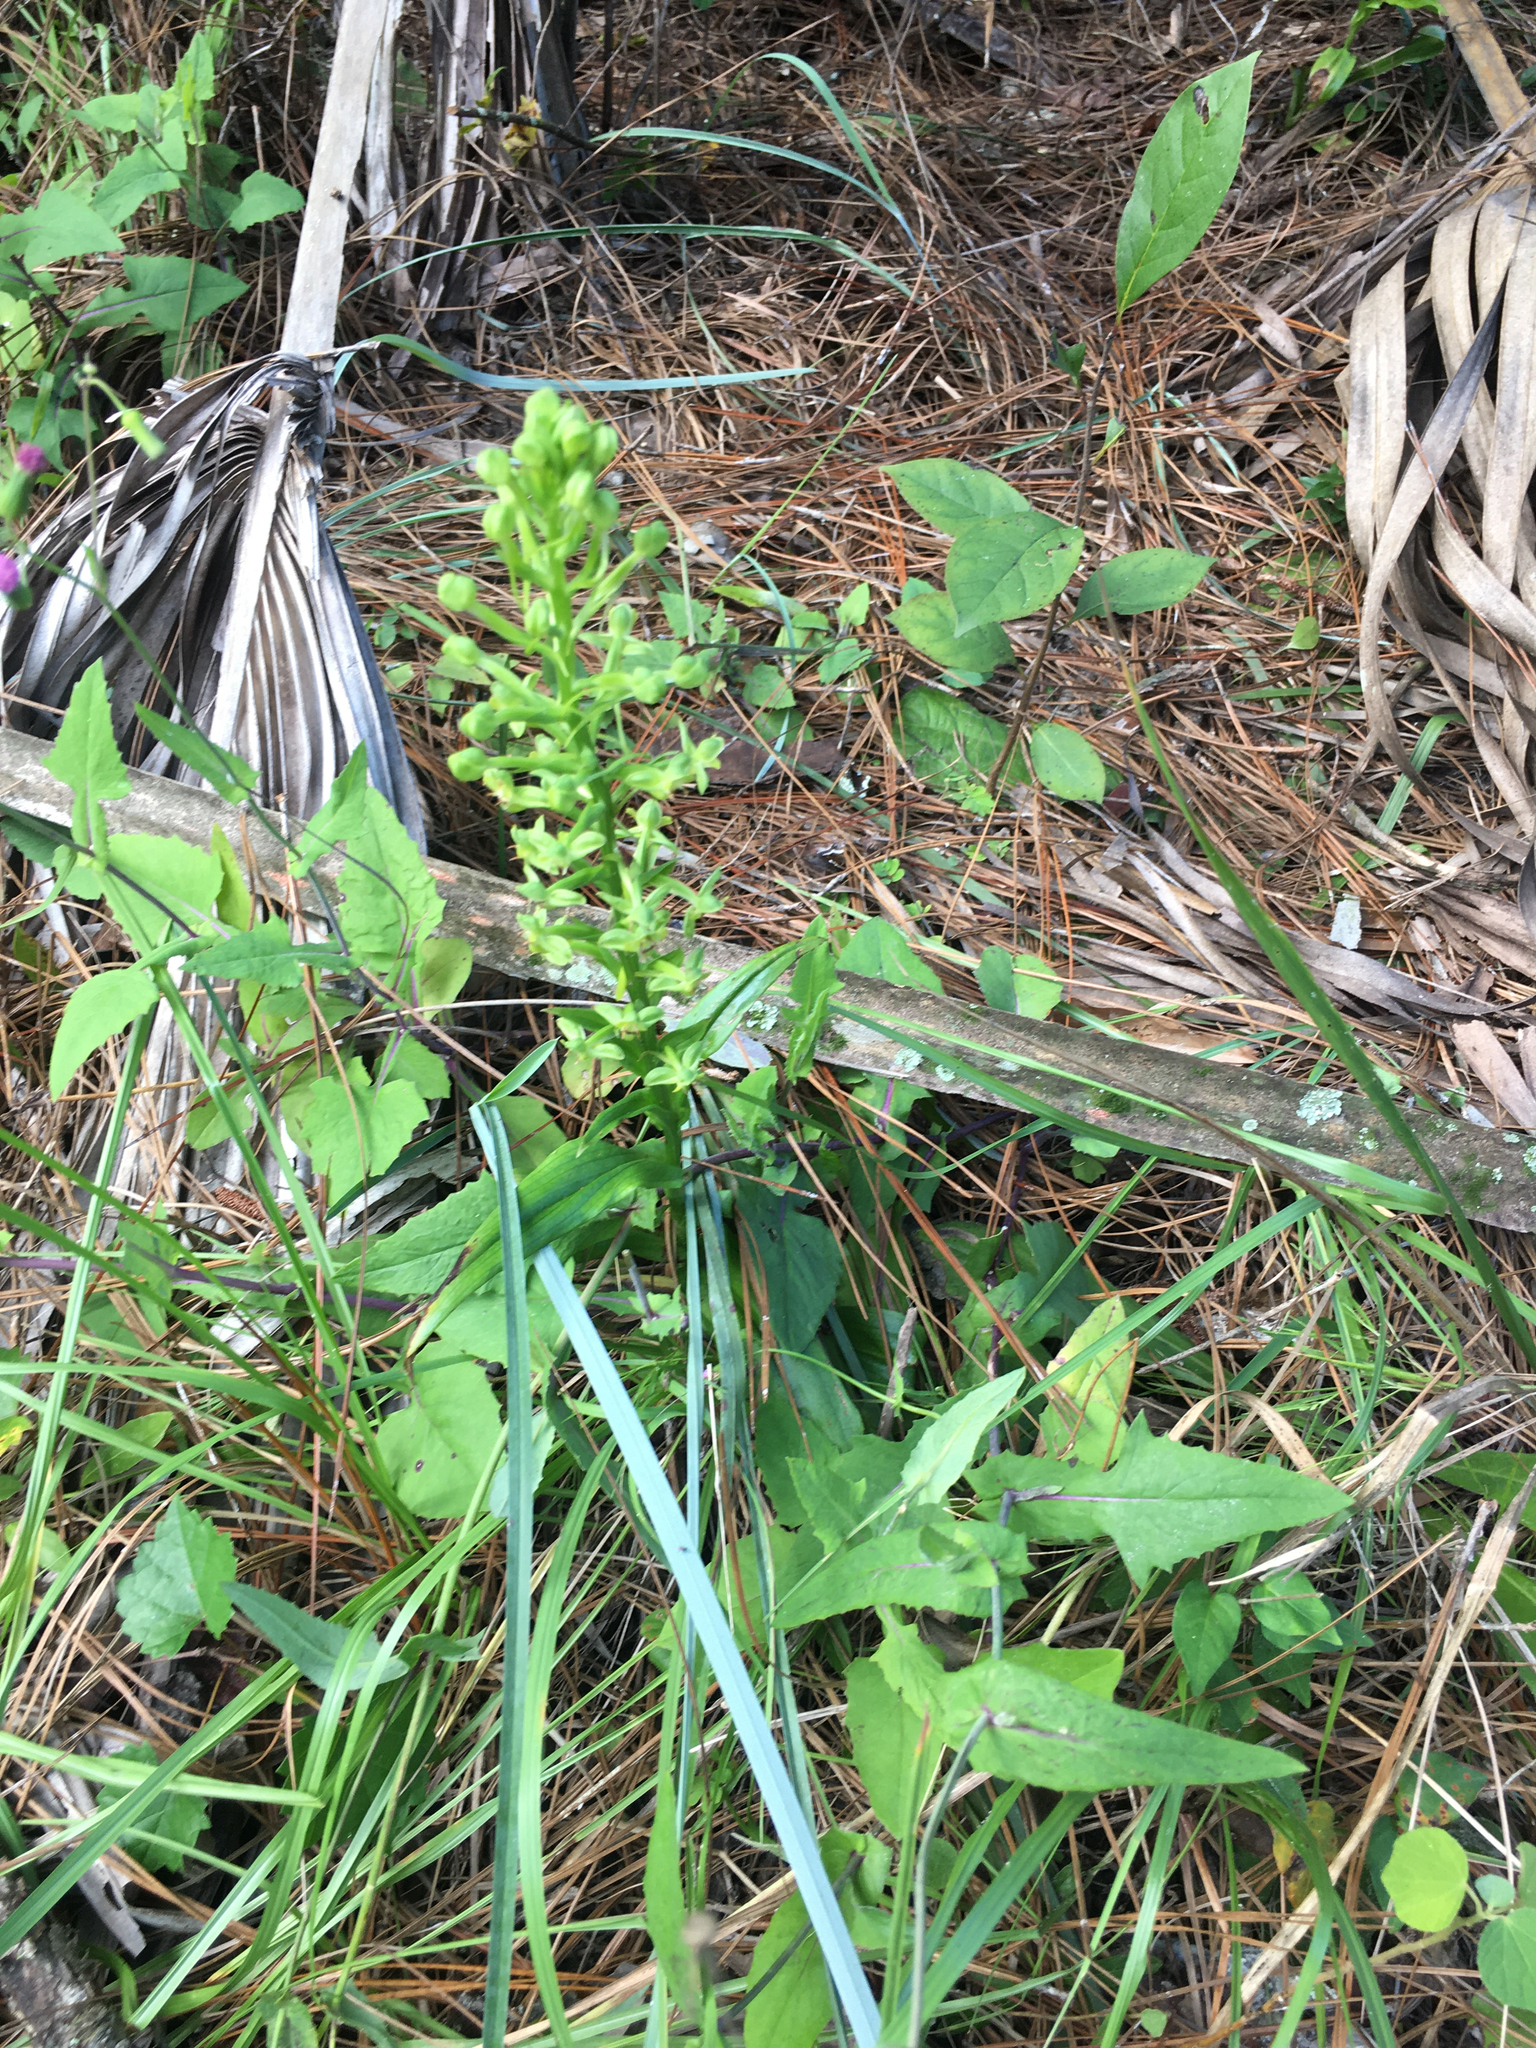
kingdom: Plantae
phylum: Tracheophyta
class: Liliopsida
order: Asparagales
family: Orchidaceae
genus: Habenaria
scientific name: Habenaria floribunda
